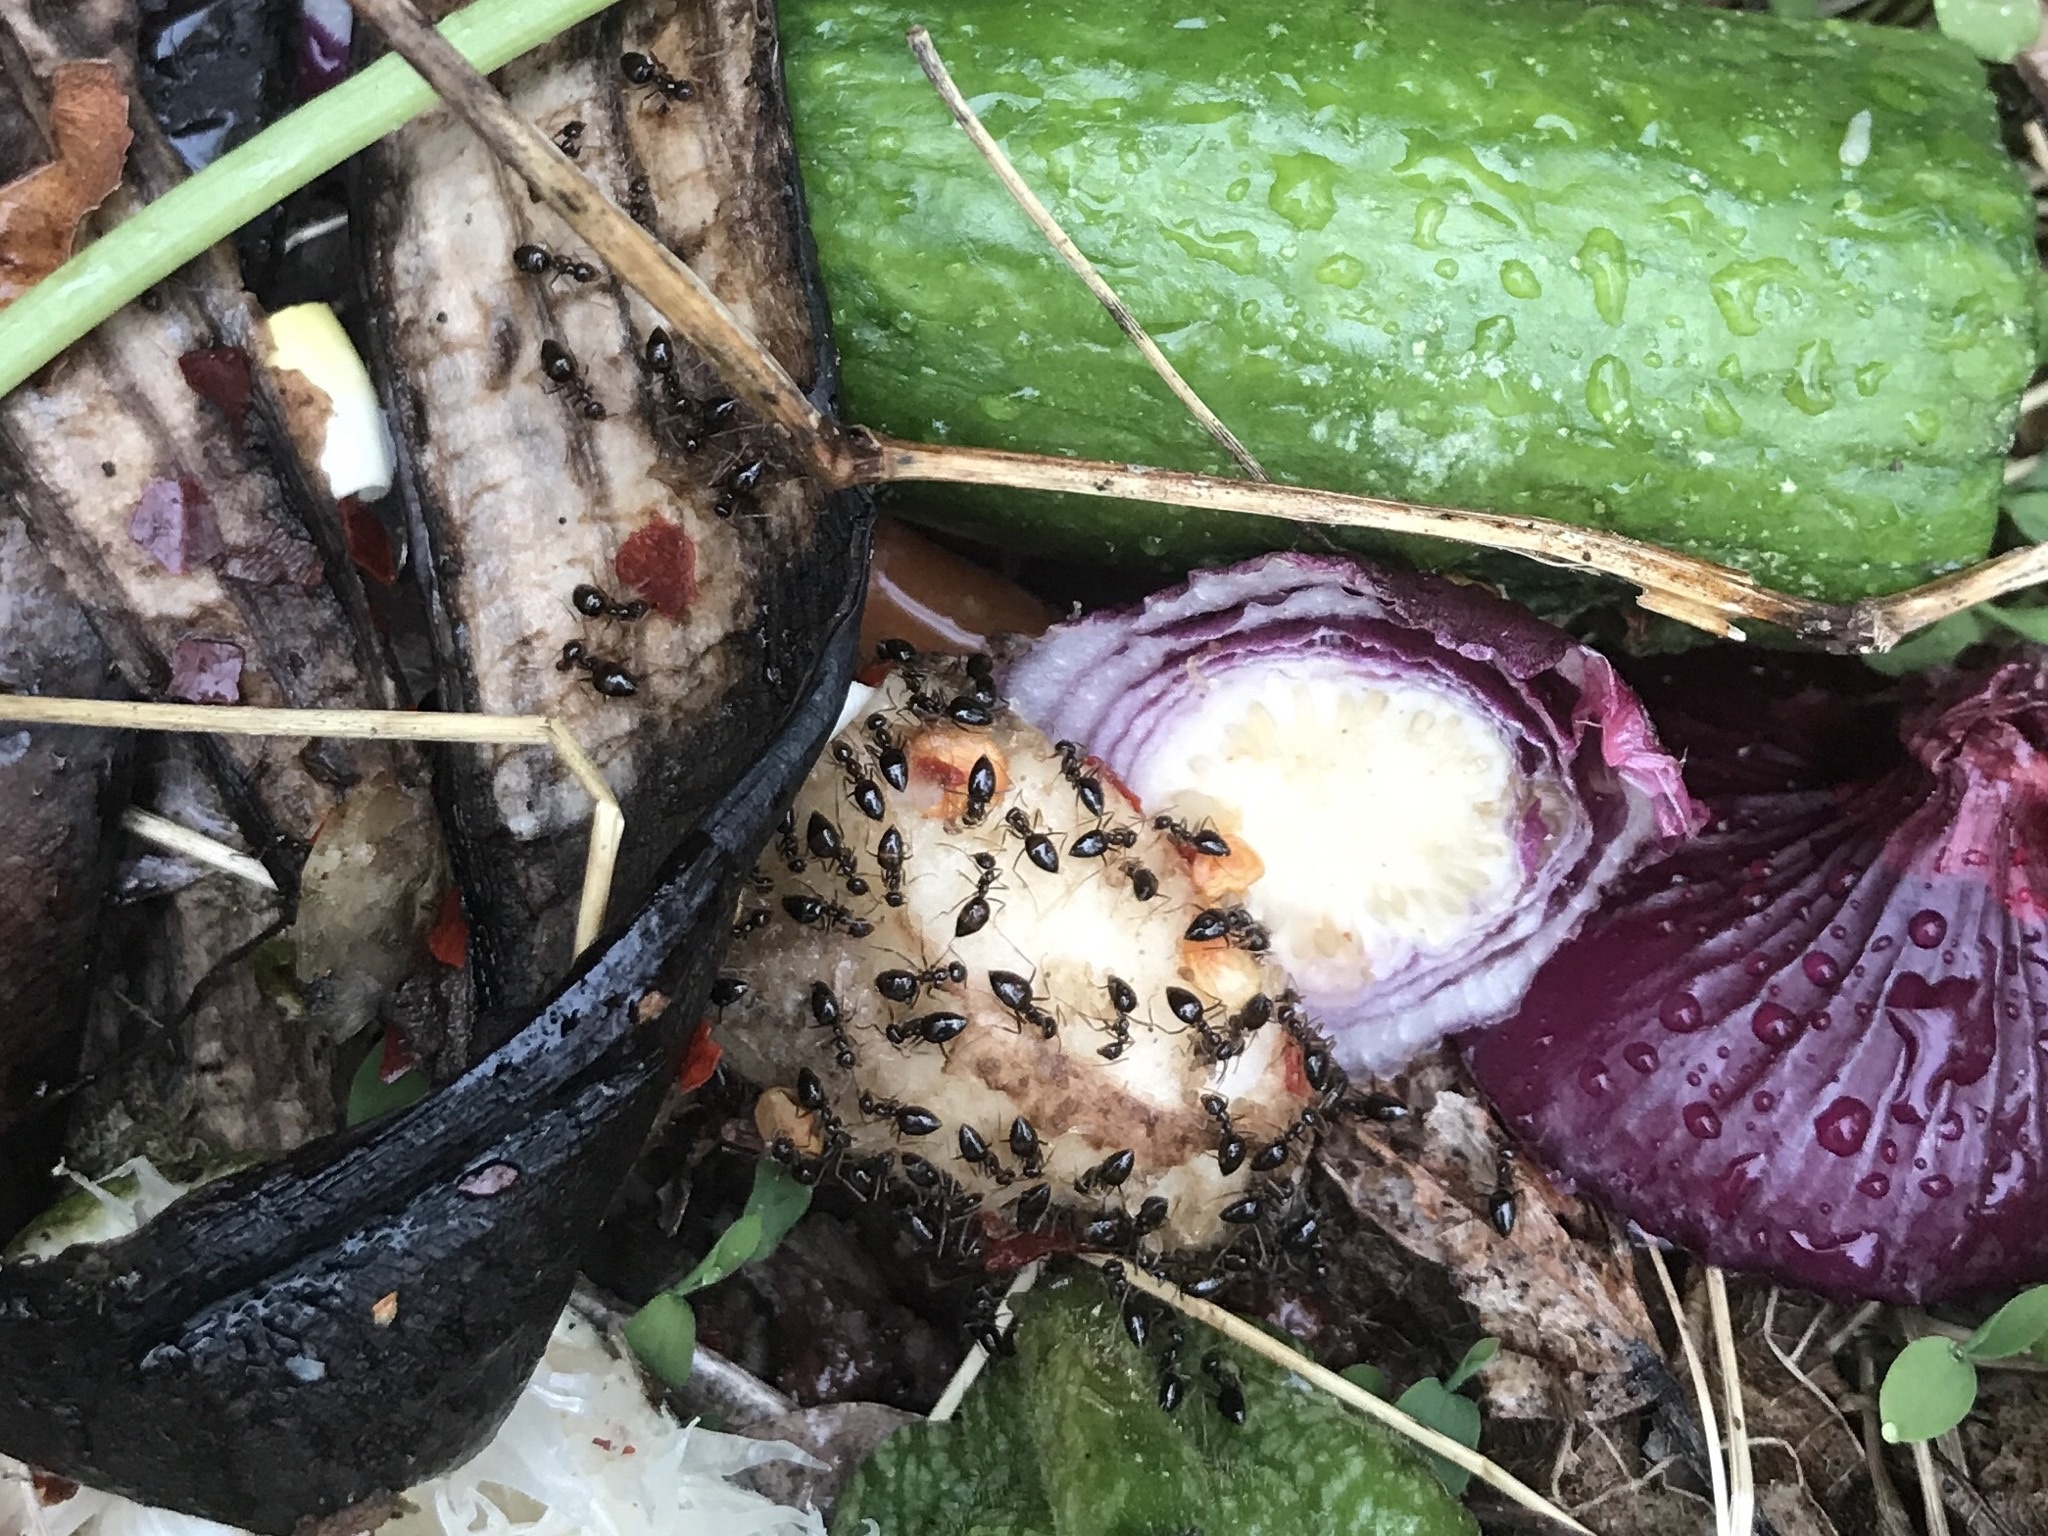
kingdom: Animalia
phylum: Arthropoda
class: Insecta
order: Hymenoptera
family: Formicidae
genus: Prenolepis
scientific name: Prenolepis imparis
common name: Small honey ant
